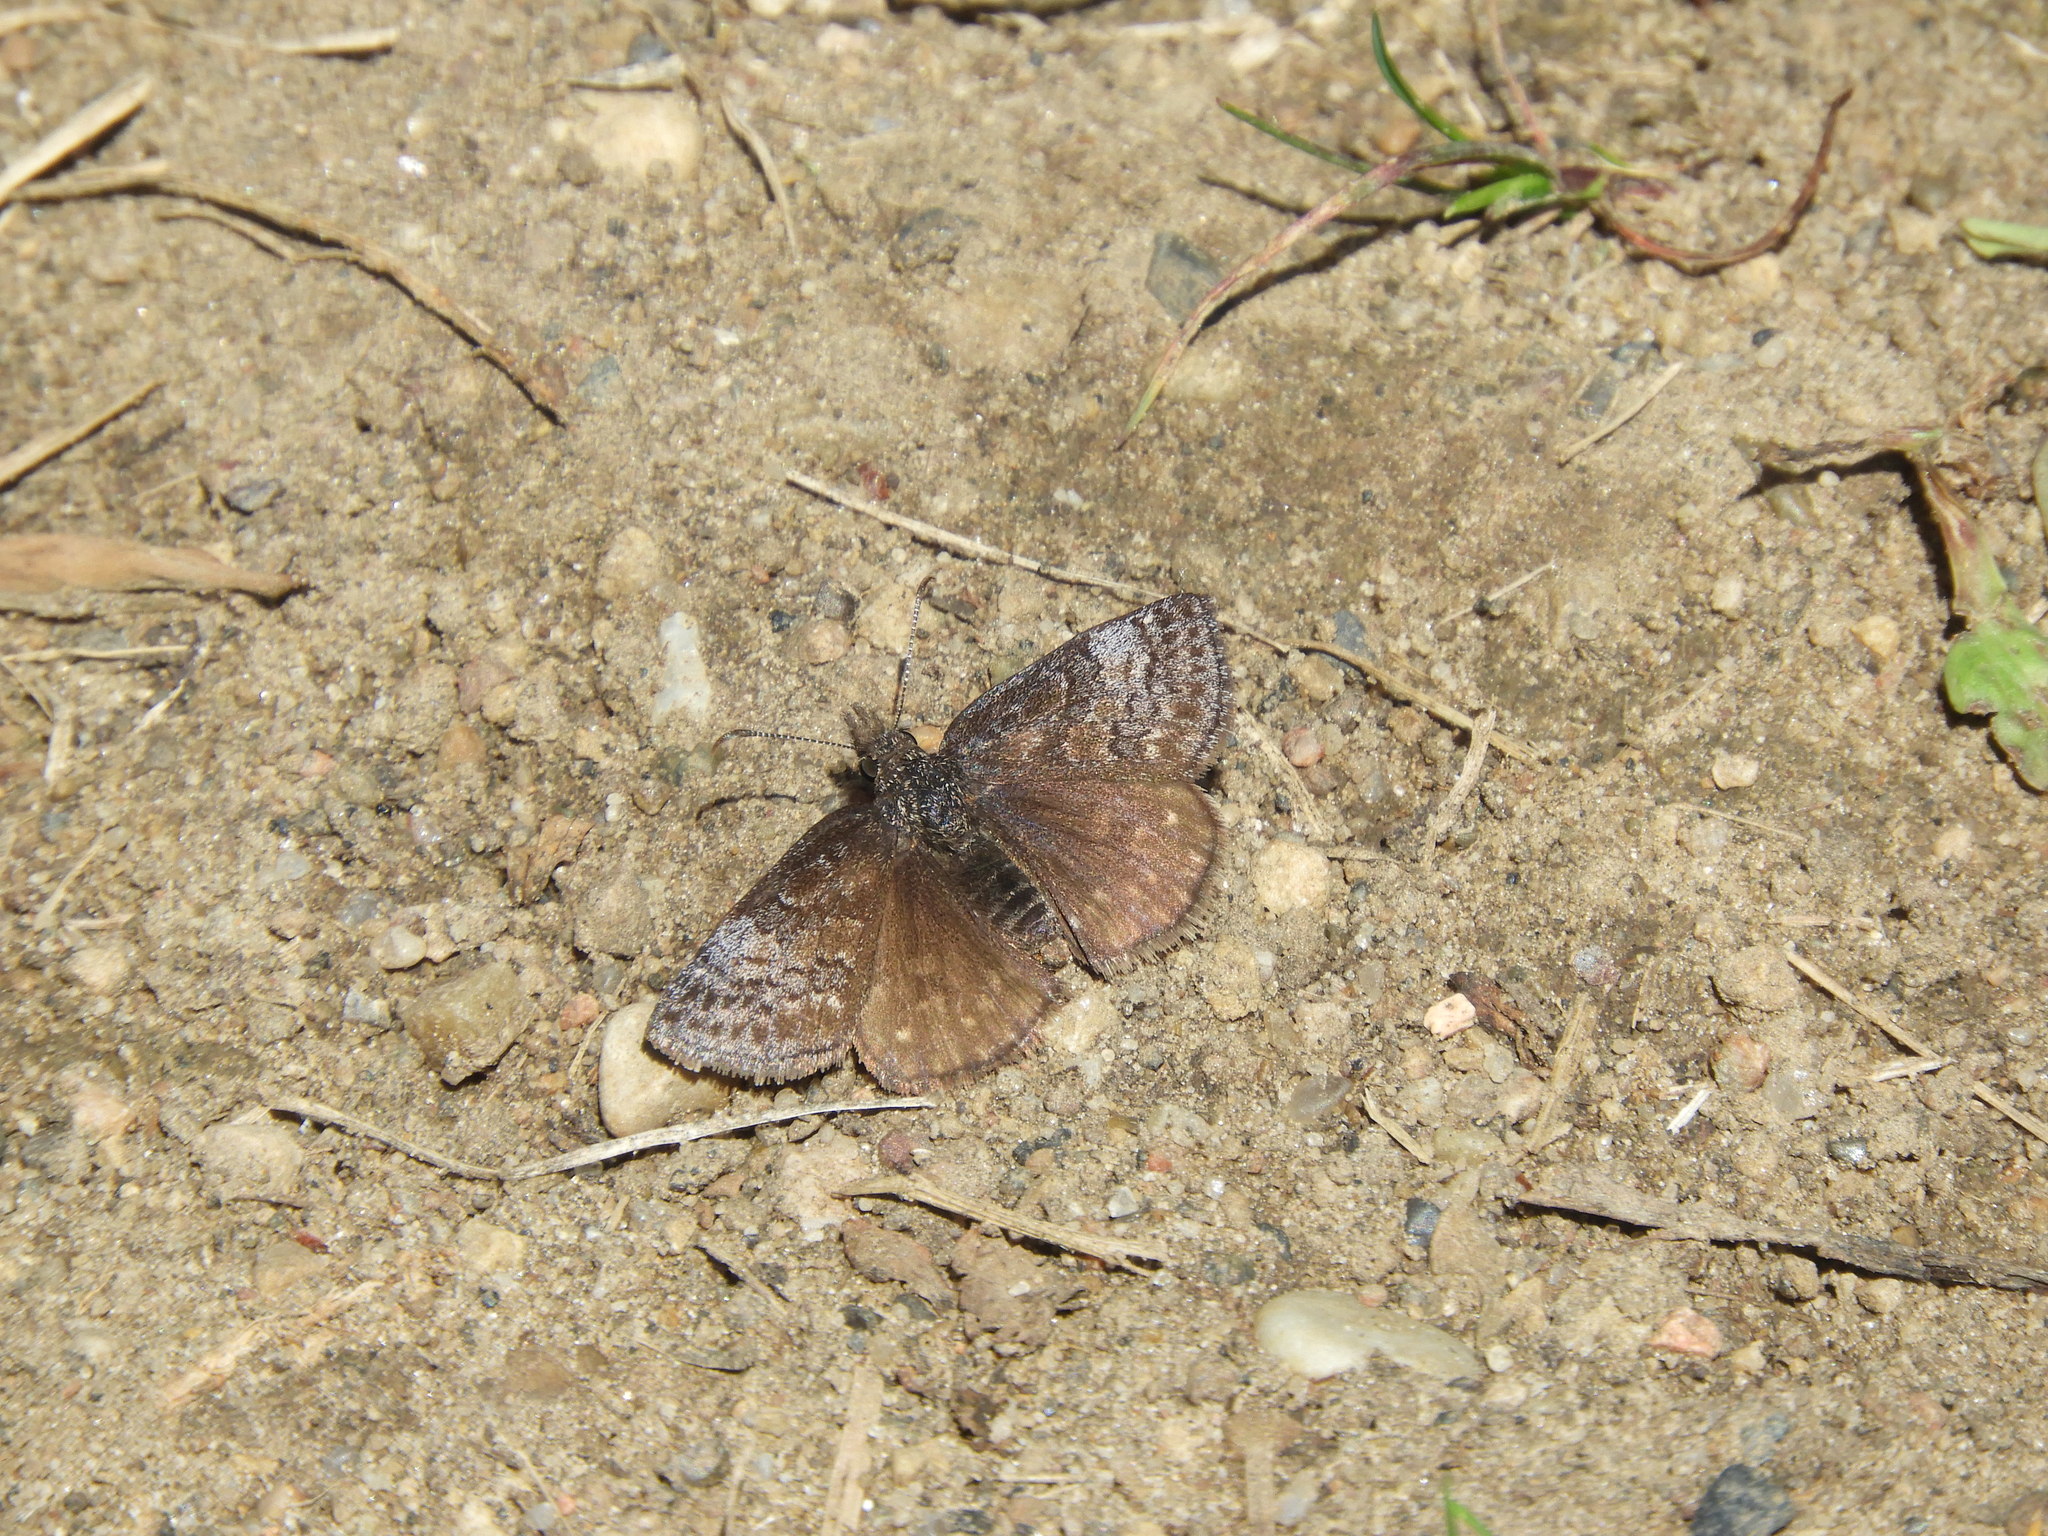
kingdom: Animalia
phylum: Arthropoda
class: Insecta
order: Lepidoptera
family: Hesperiidae
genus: Erynnis
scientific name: Erynnis icelus
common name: Dreamy duskywing
